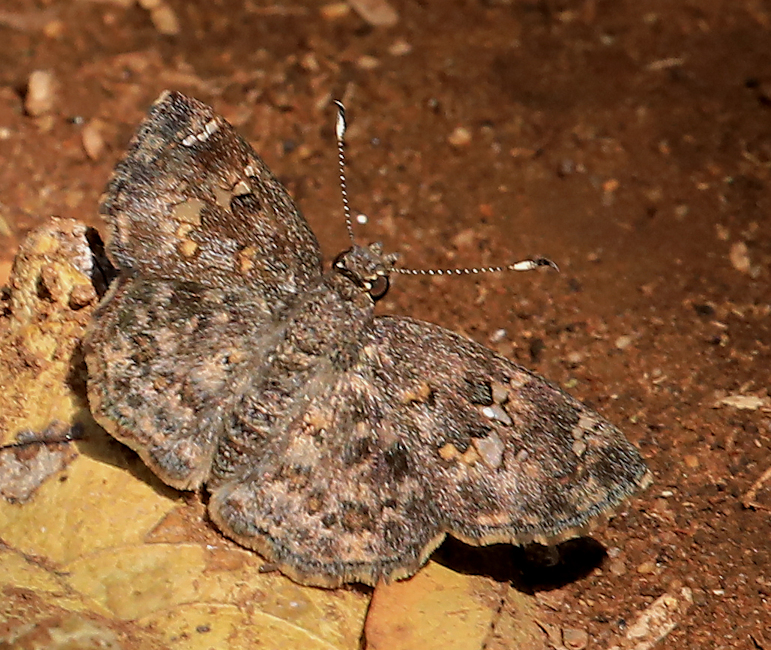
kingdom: Animalia
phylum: Arthropoda
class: Insecta
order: Lepidoptera
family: Hesperiidae
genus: Sarangesa
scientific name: Sarangesa seineri
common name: Dark elfin
